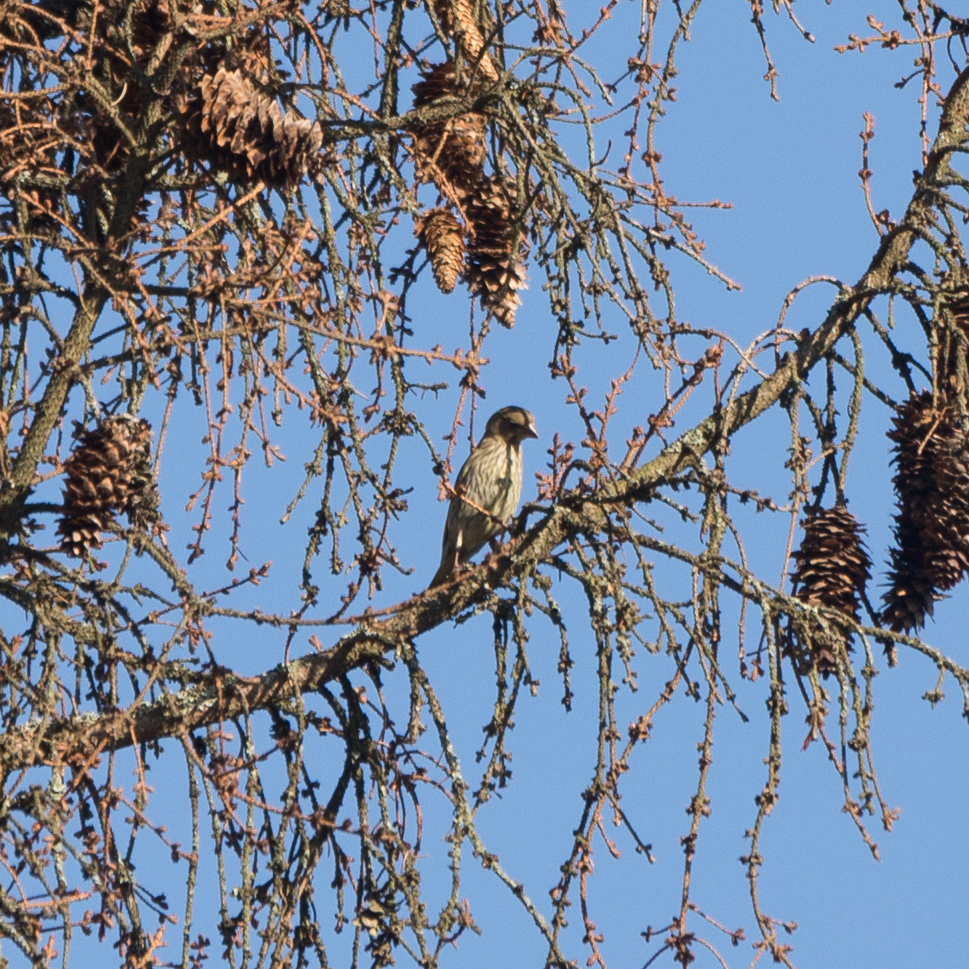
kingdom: Plantae
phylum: Tracheophyta
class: Liliopsida
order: Poales
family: Poaceae
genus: Chloris
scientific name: Chloris chloris
